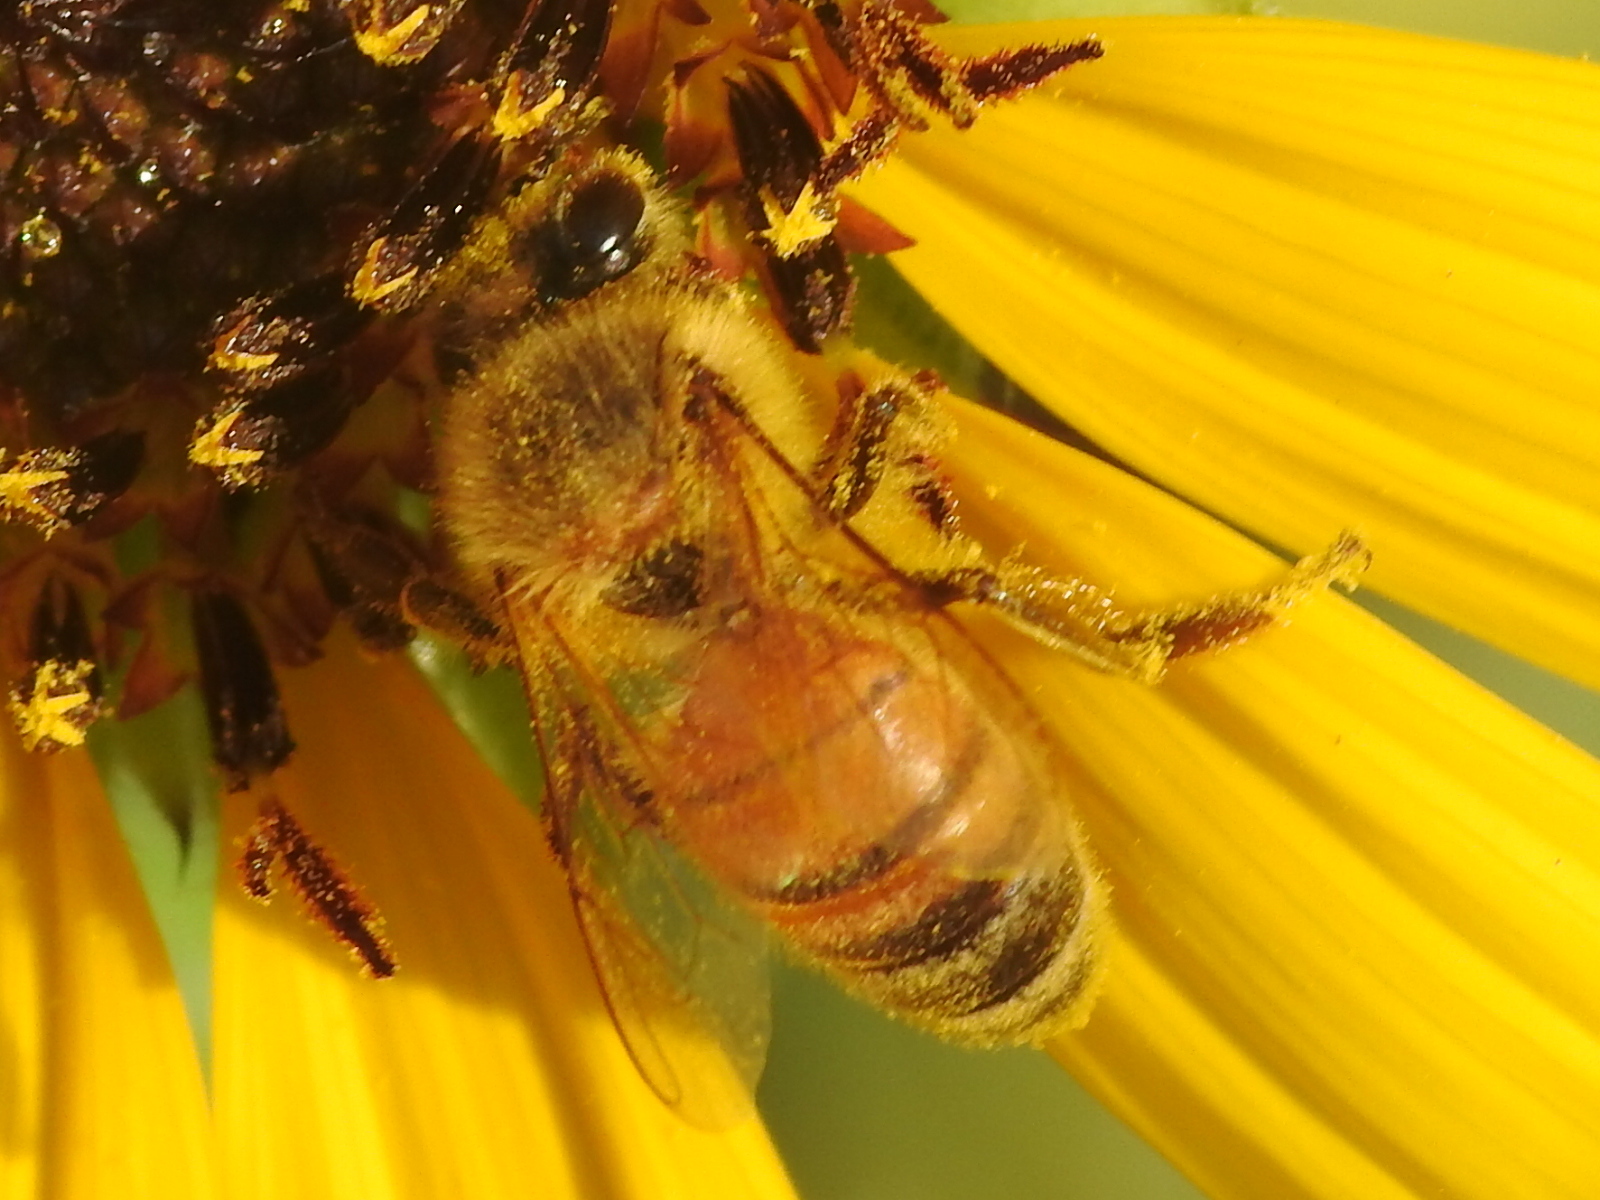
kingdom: Animalia
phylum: Arthropoda
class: Insecta
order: Hymenoptera
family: Apidae
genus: Apis
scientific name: Apis mellifera
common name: Honey bee
